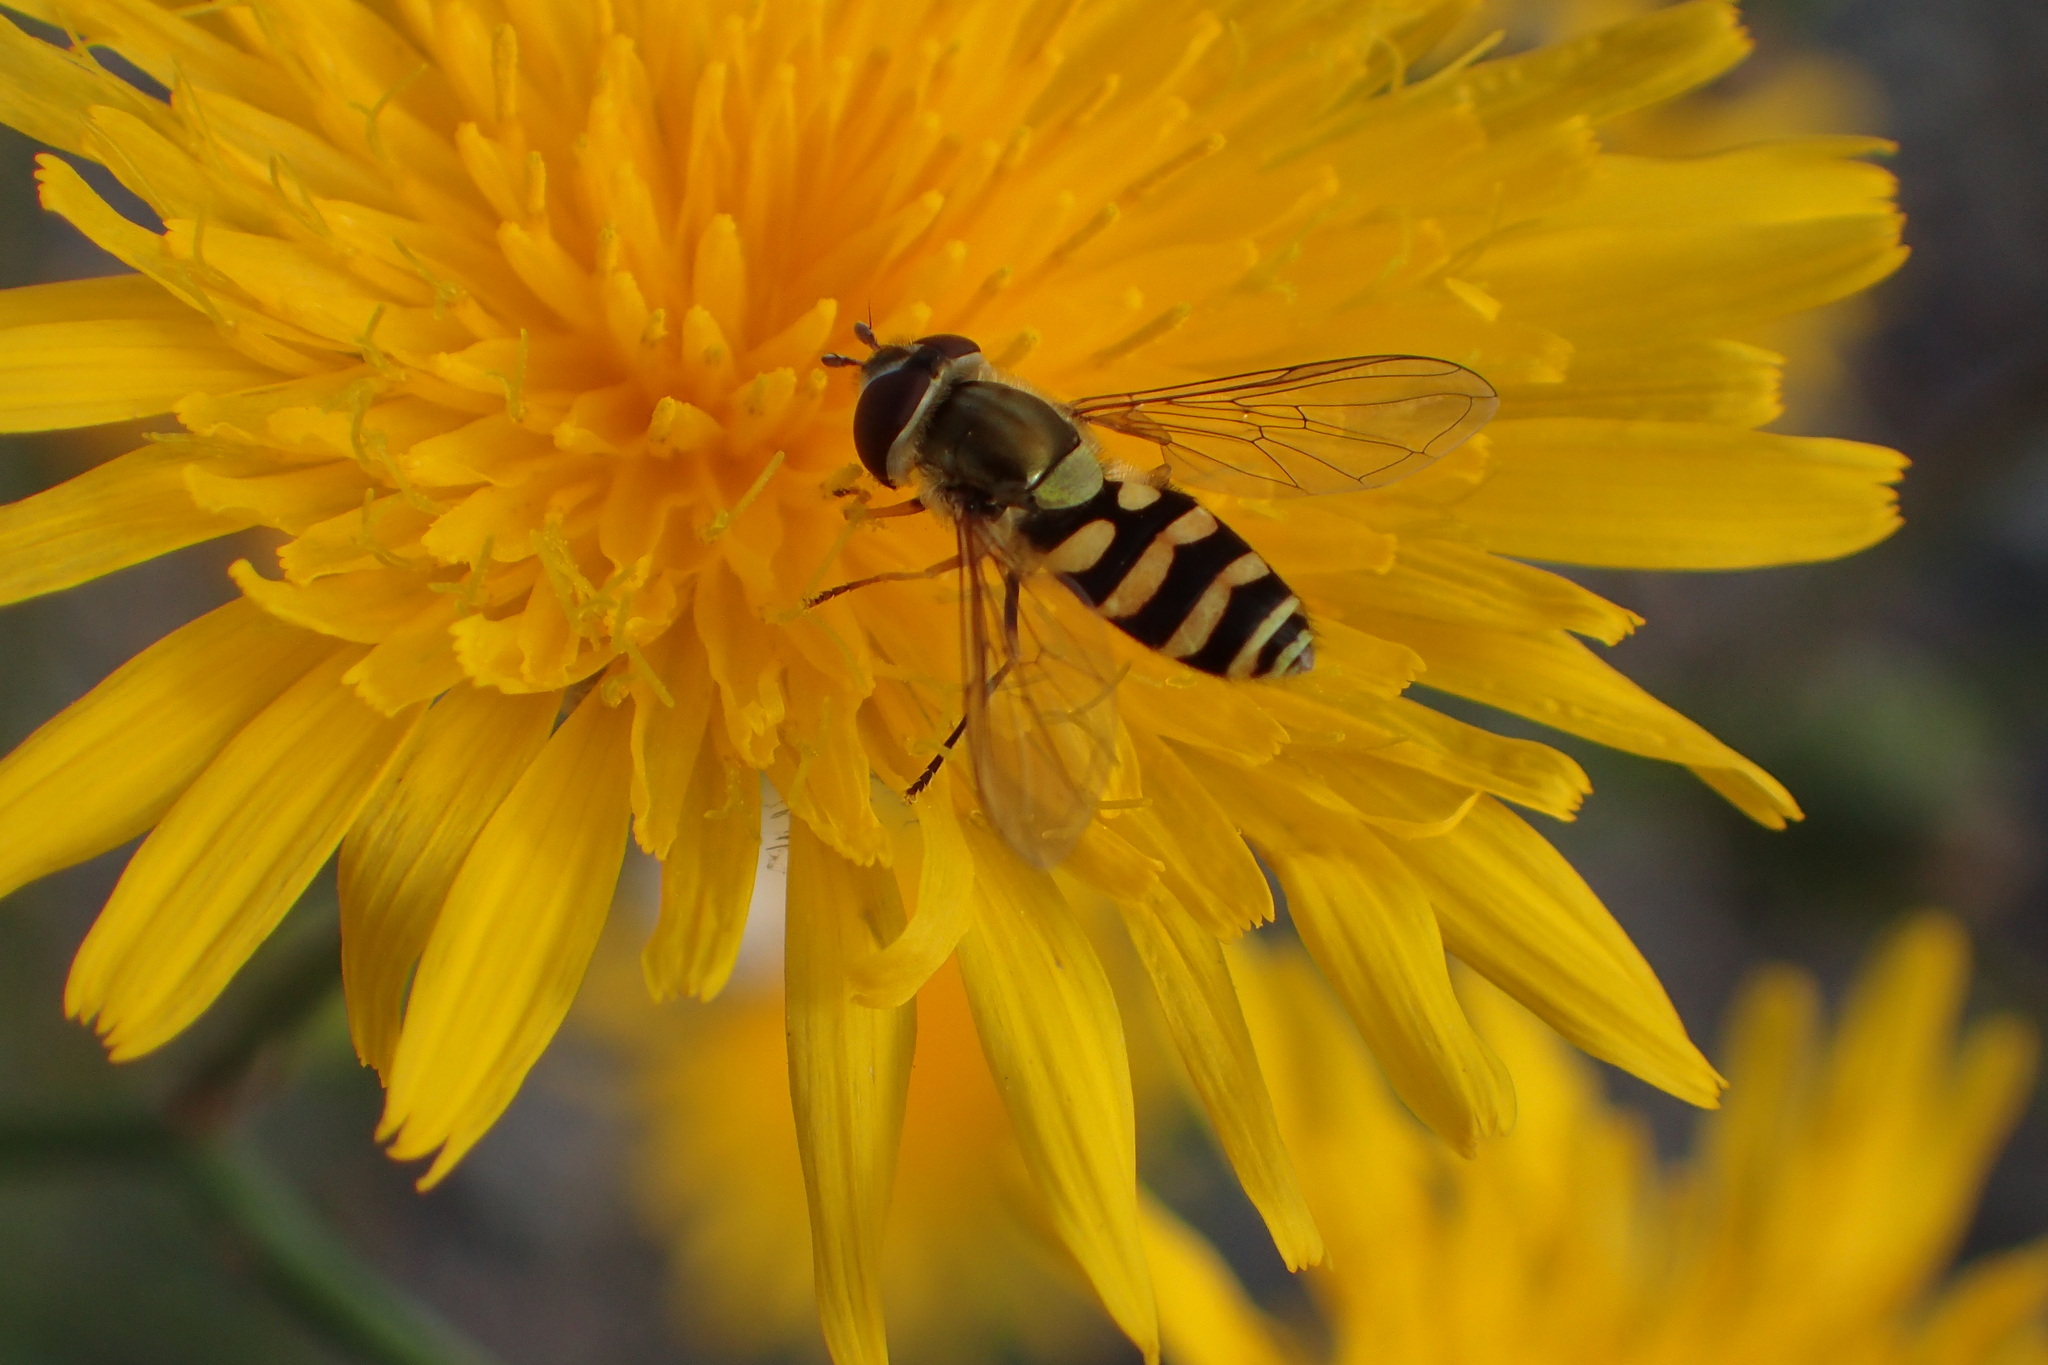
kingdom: Animalia
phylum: Arthropoda
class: Insecta
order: Diptera
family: Syrphidae
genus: Syrphus
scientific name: Syrphus
